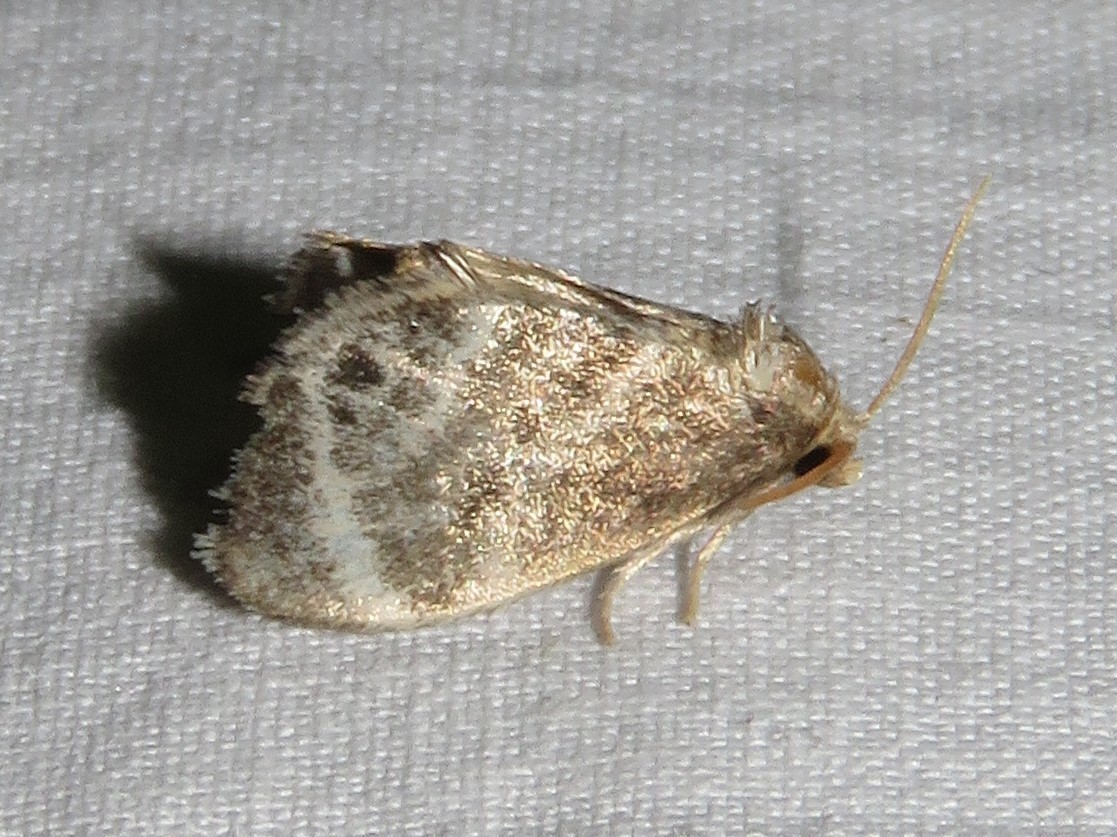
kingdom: Animalia
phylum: Arthropoda
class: Insecta
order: Lepidoptera
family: Limacodidae
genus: Packardia
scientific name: Packardia elegans
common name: Elegant tailed slug moth
